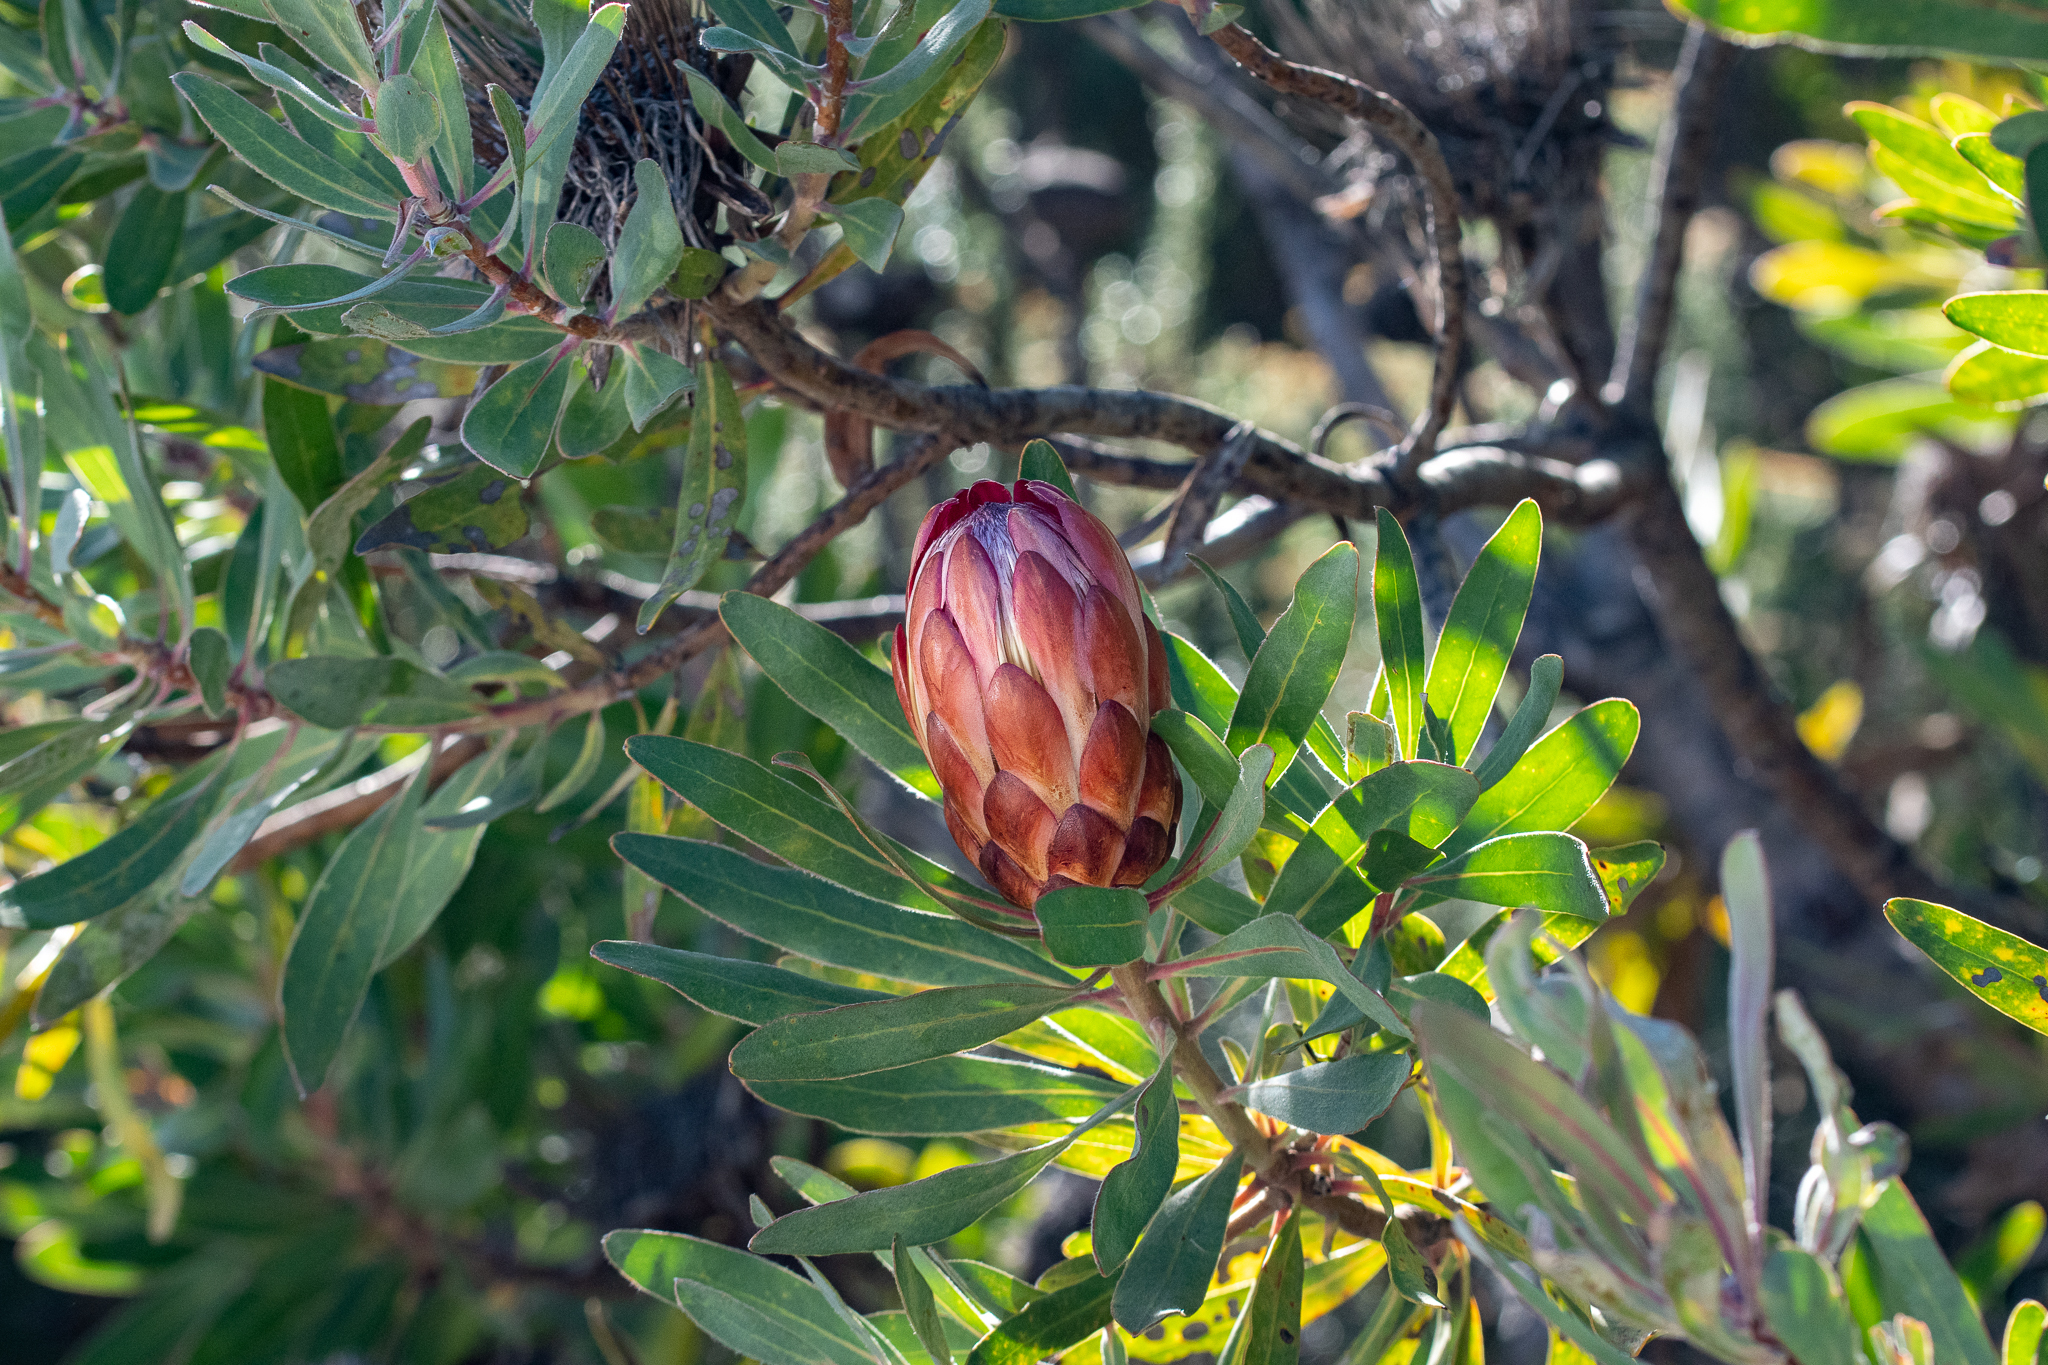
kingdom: Plantae
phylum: Tracheophyta
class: Magnoliopsida
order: Proteales
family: Proteaceae
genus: Protea
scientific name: Protea susannae
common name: Foetid-leaf sugarbush
